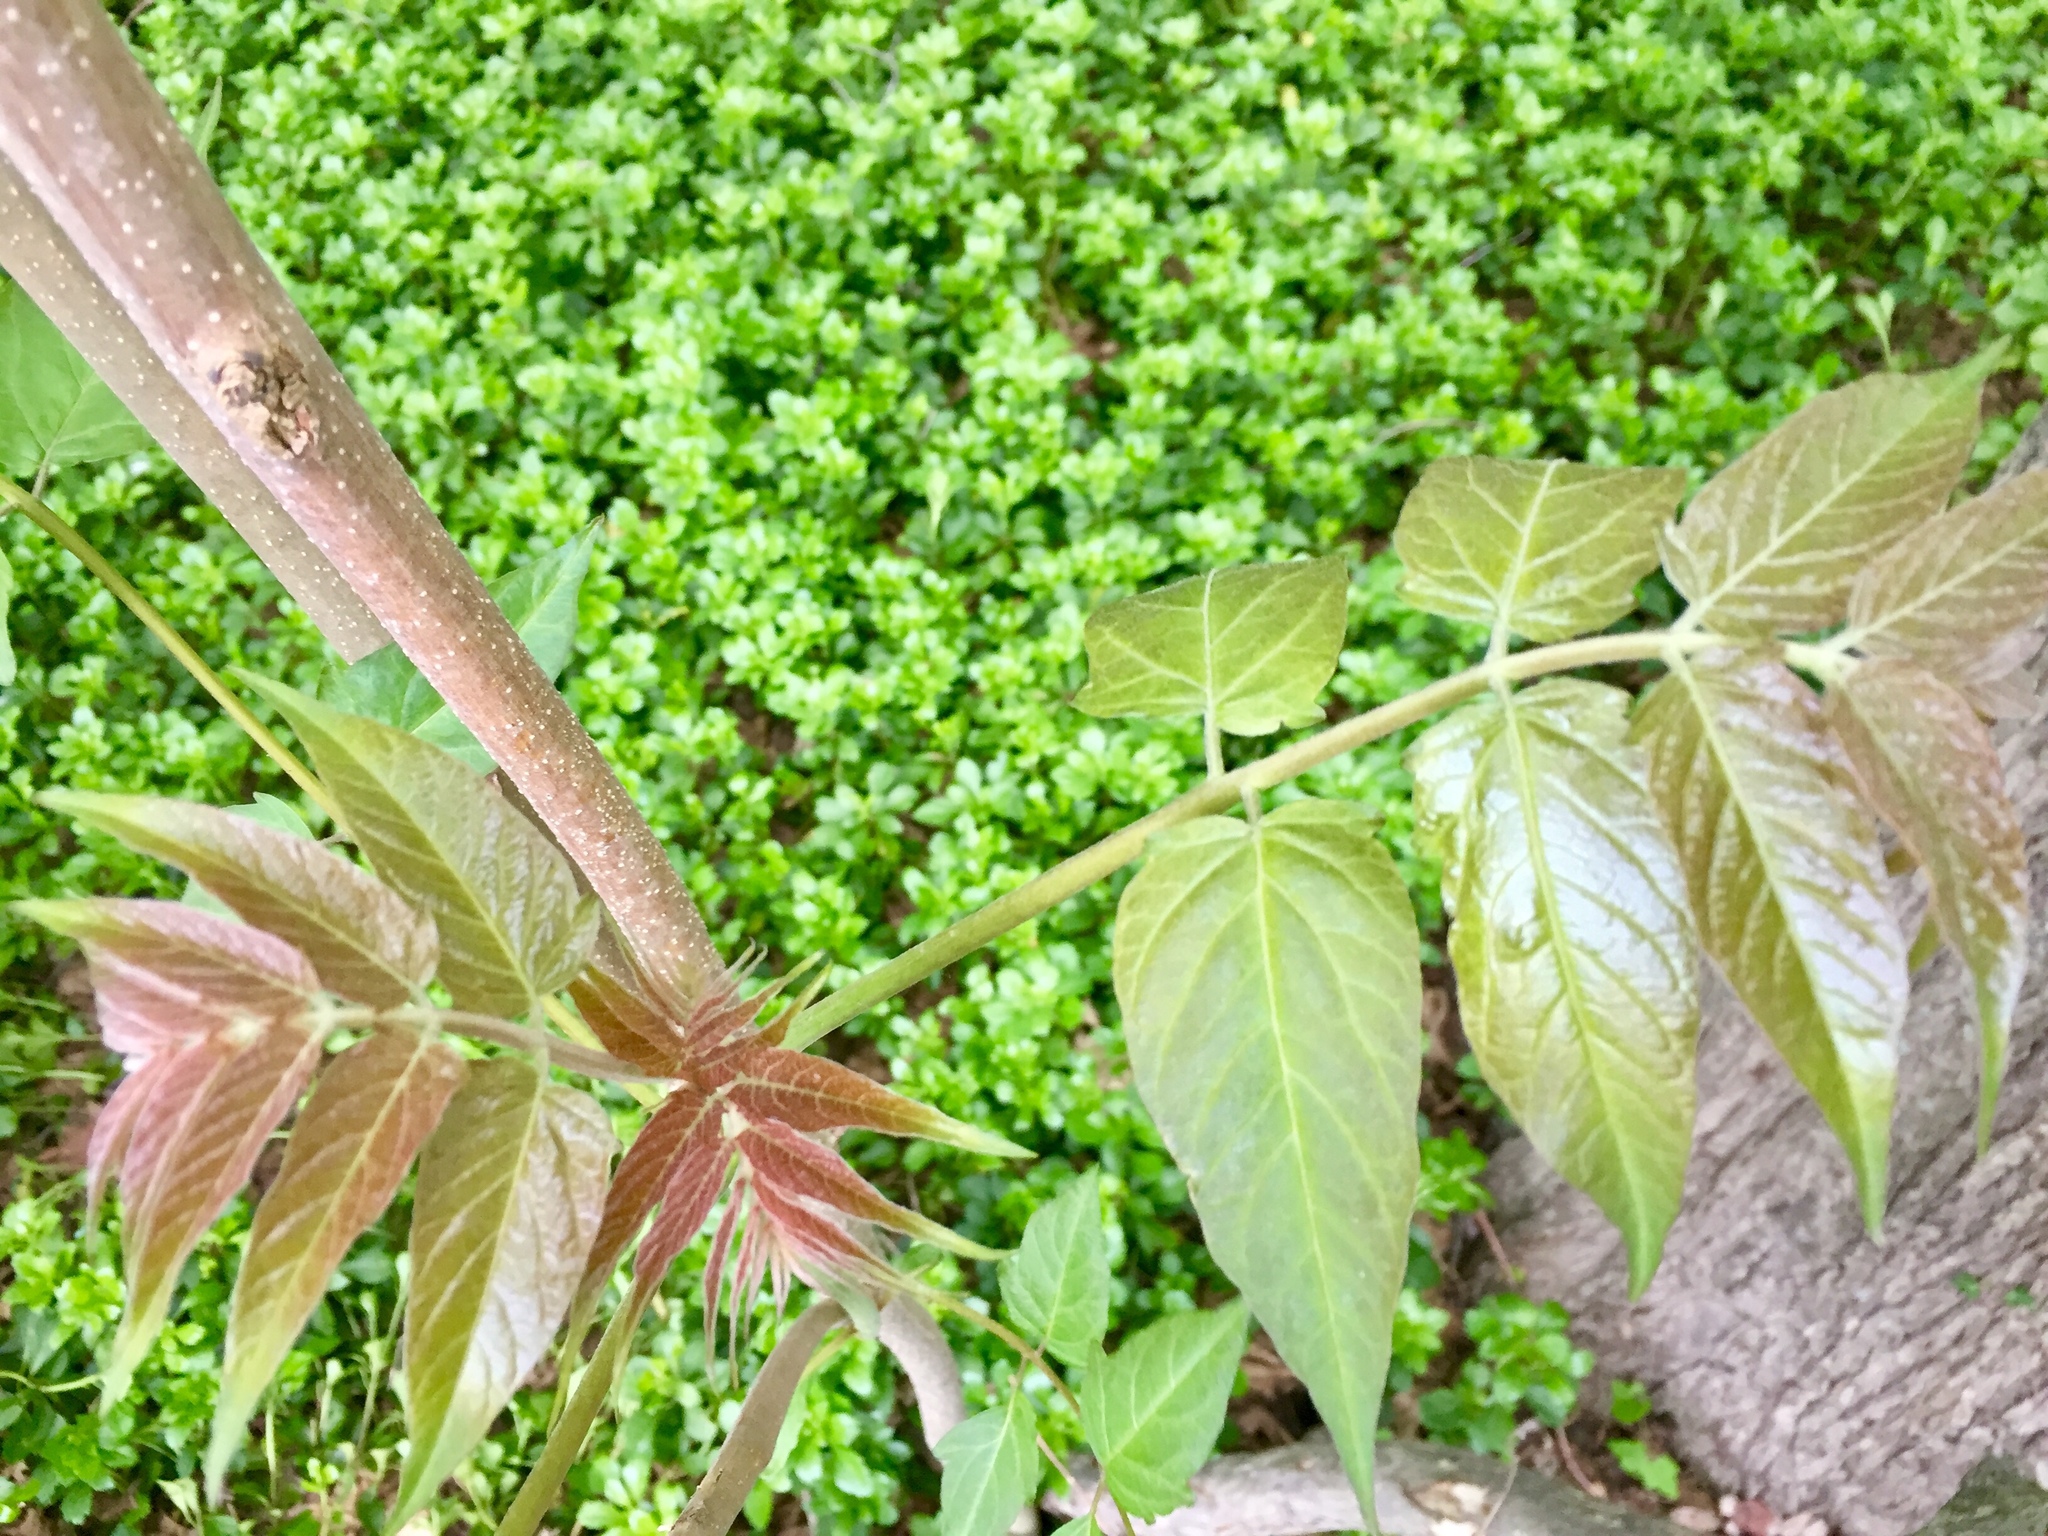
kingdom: Plantae
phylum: Tracheophyta
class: Magnoliopsida
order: Sapindales
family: Simaroubaceae
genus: Ailanthus
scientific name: Ailanthus altissima
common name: Tree-of-heaven
